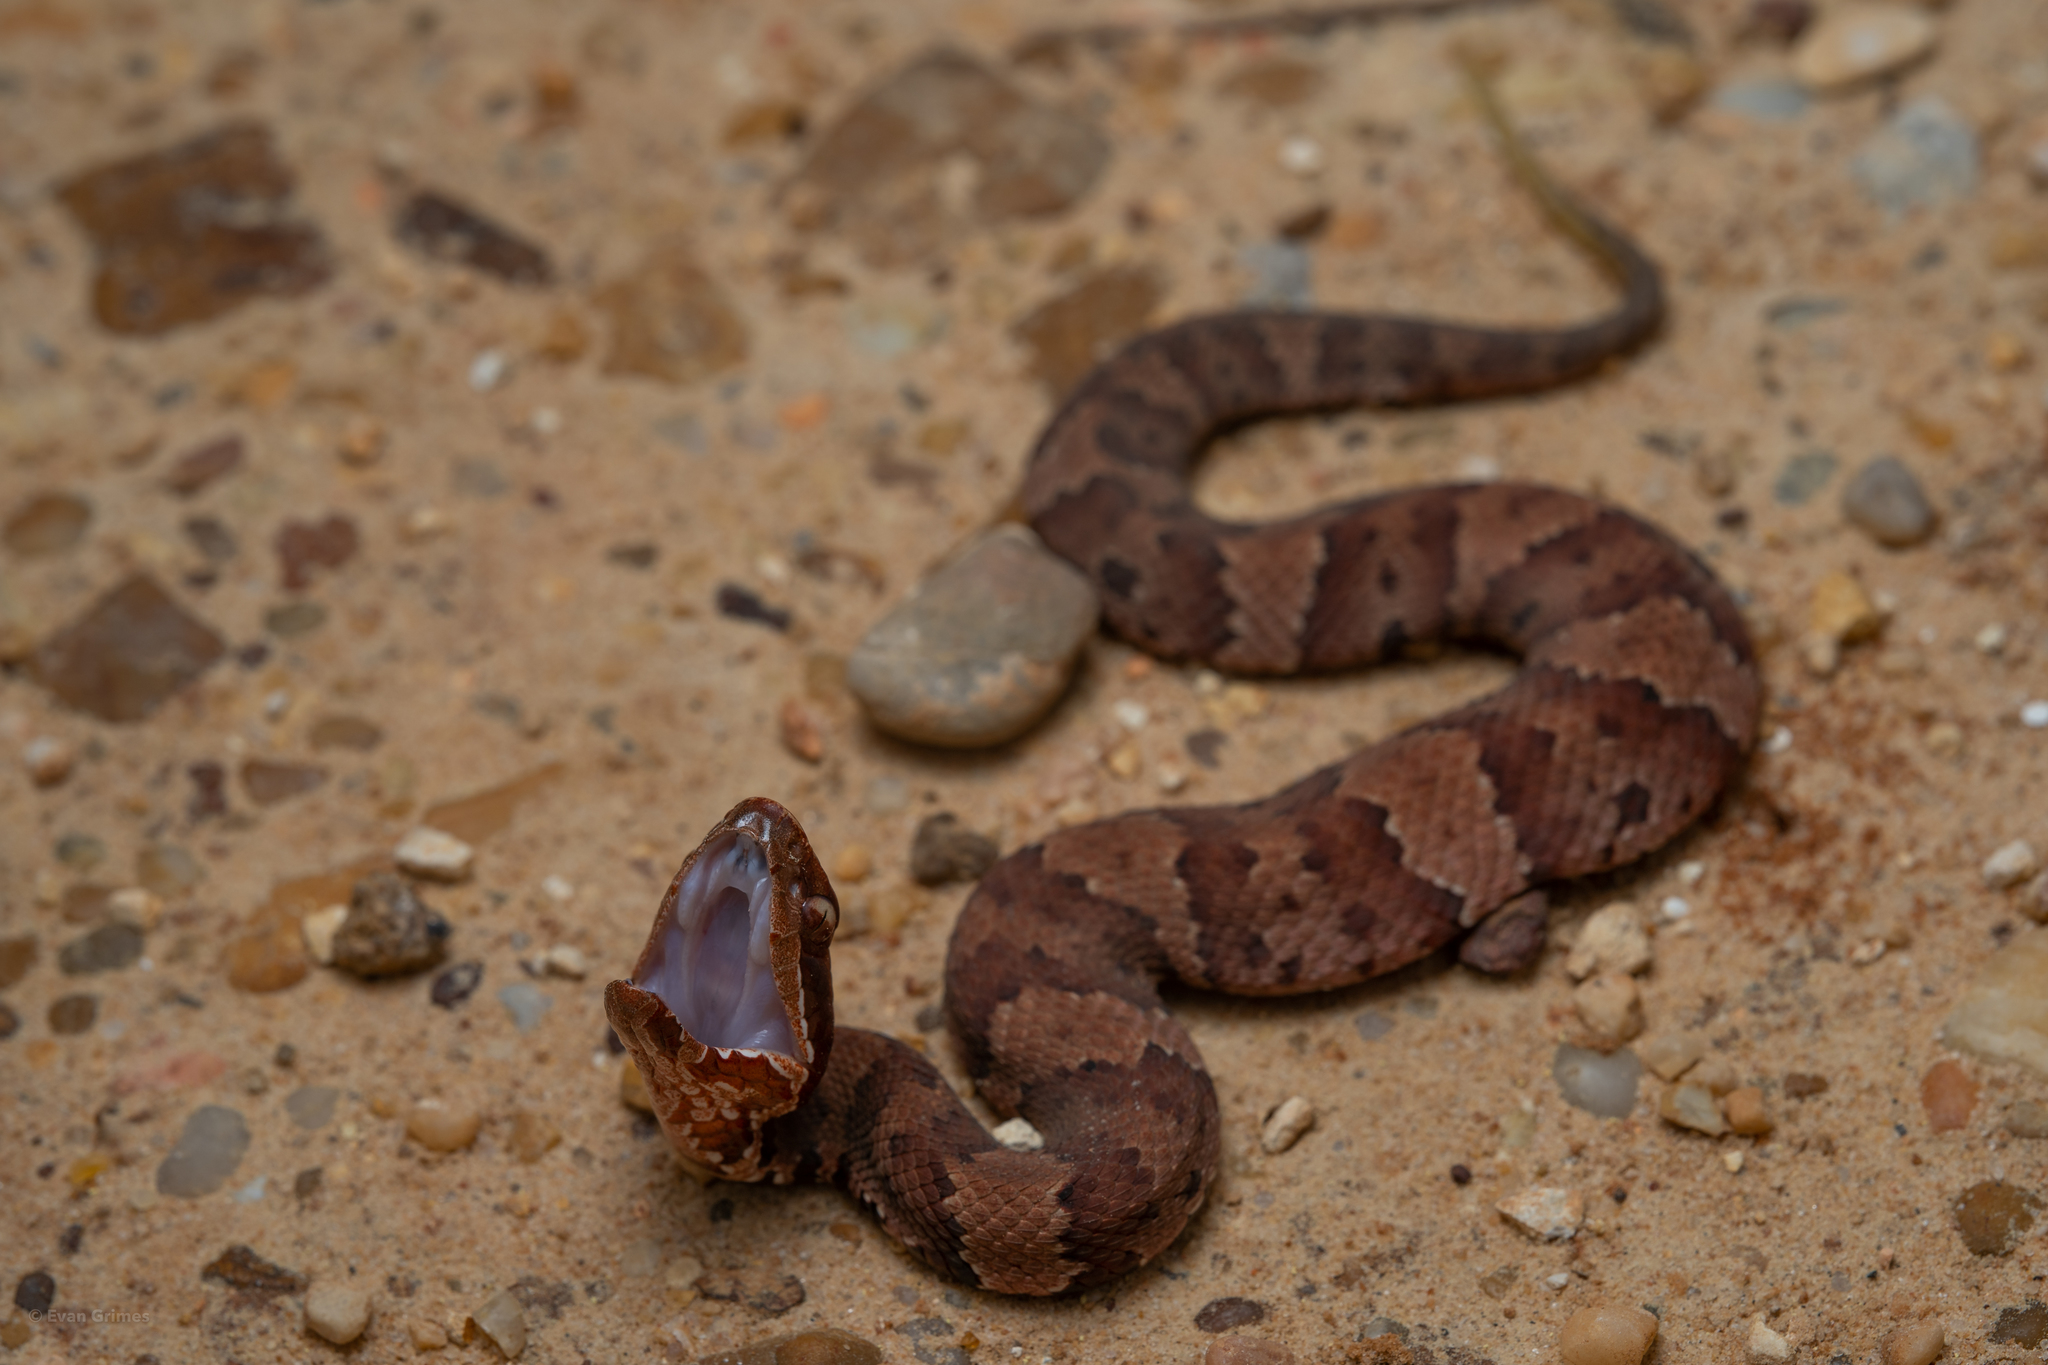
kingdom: Animalia
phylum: Chordata
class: Squamata
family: Viperidae
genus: Agkistrodon
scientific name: Agkistrodon piscivorus
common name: Cottonmouth
